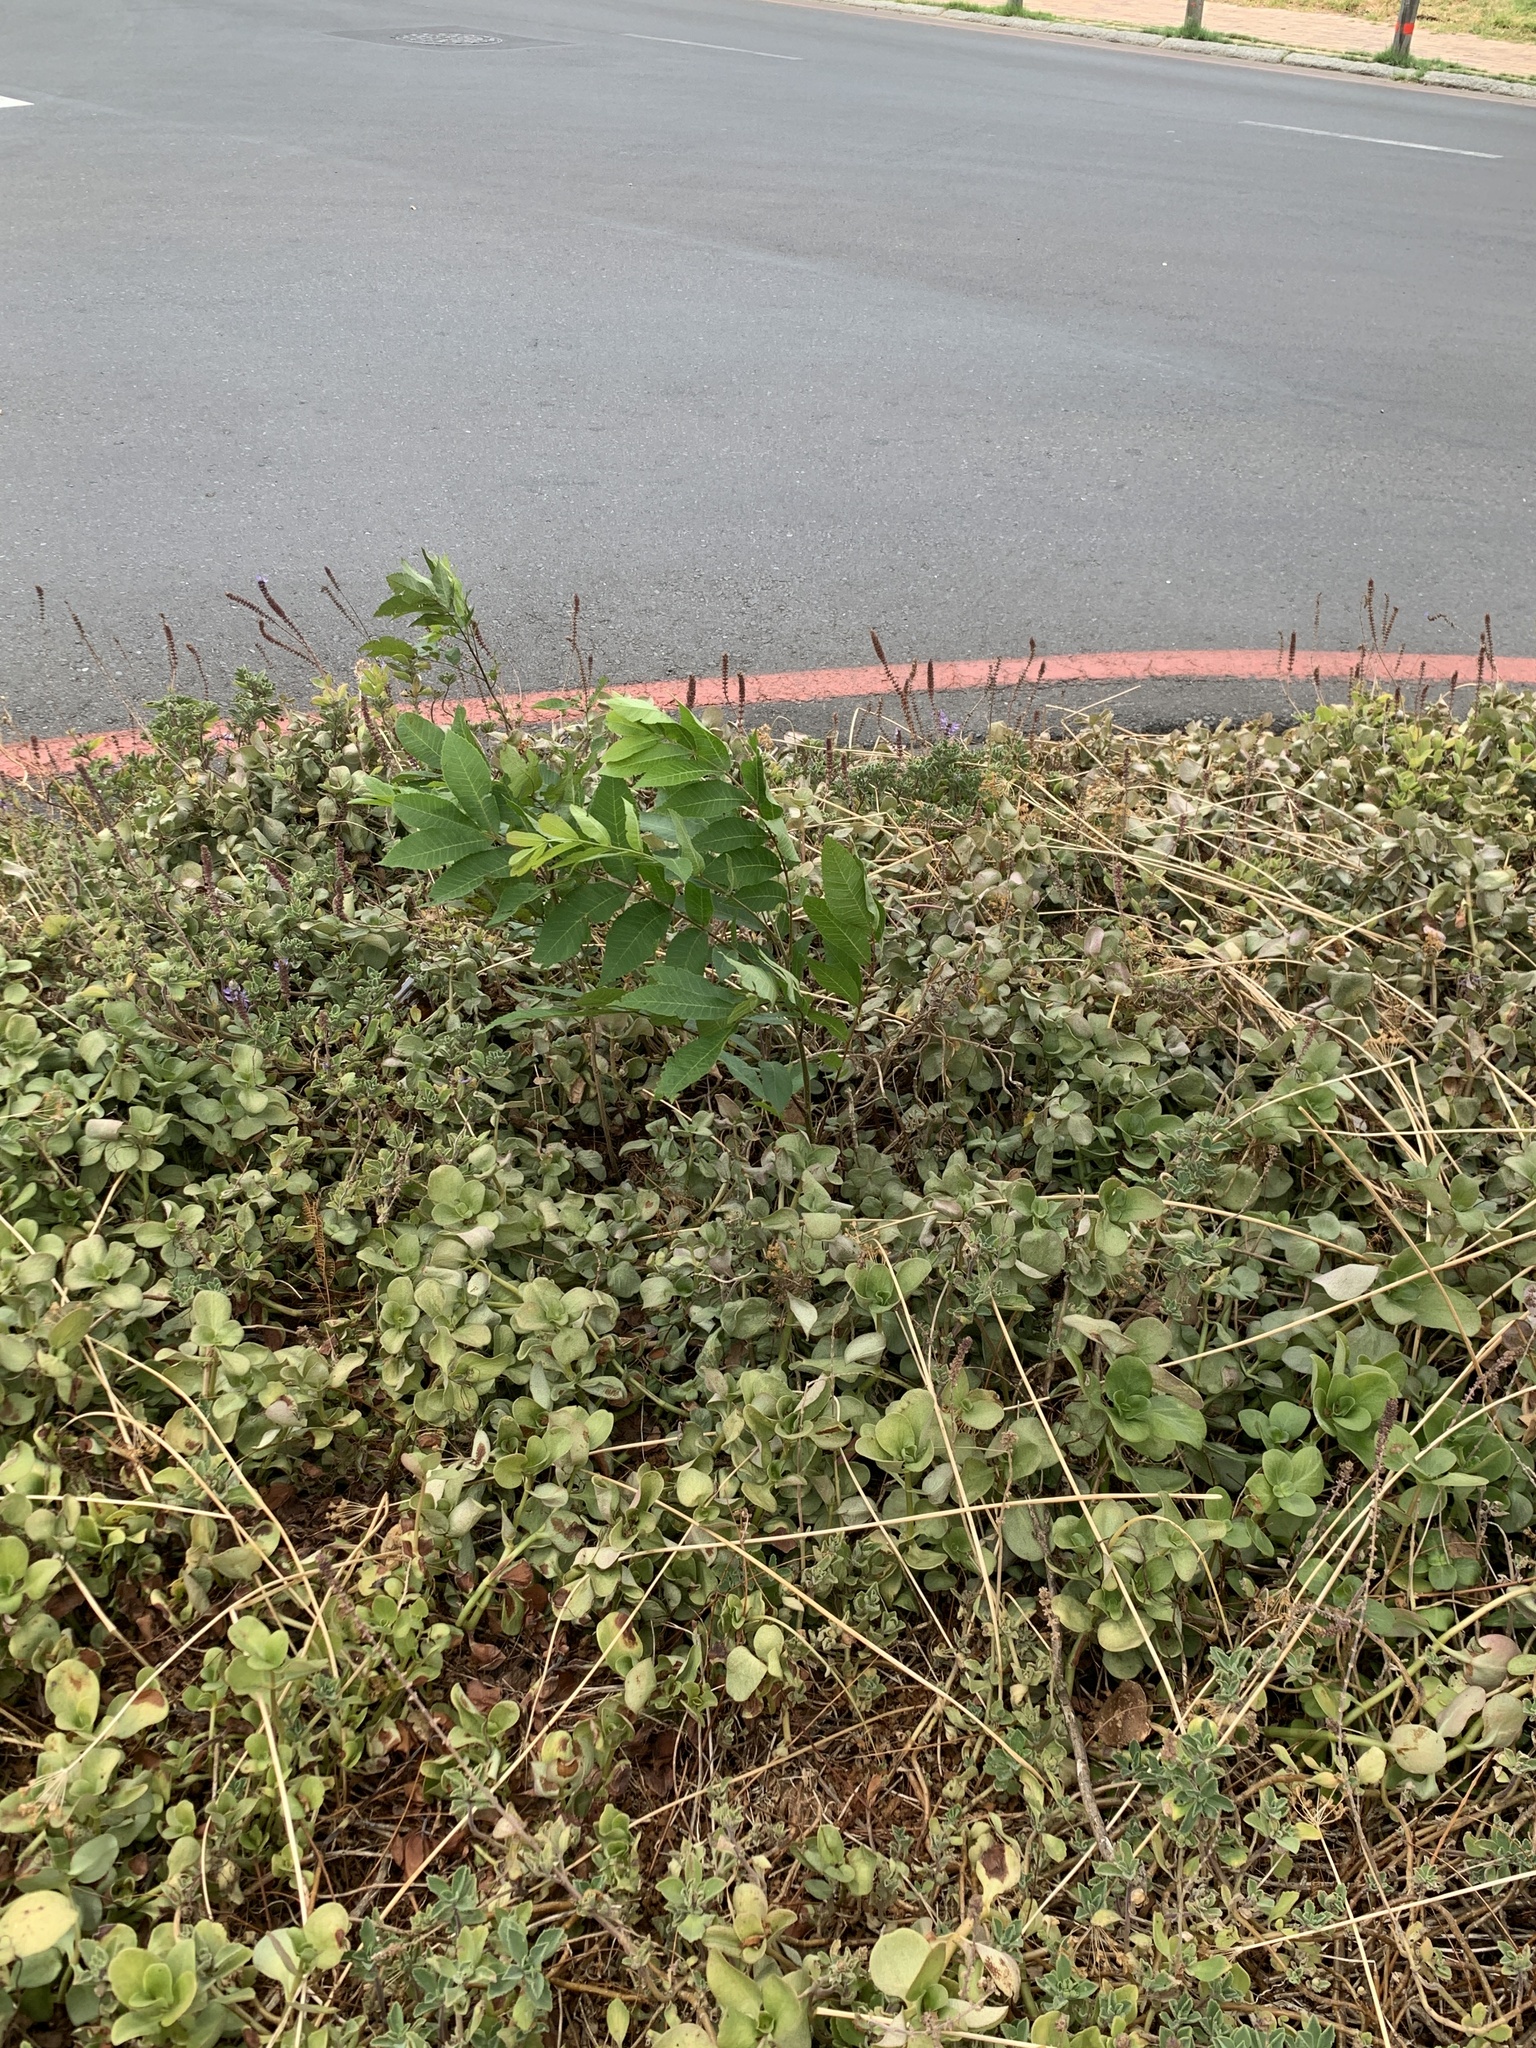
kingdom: Plantae
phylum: Tracheophyta
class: Magnoliopsida
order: Fagales
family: Juglandaceae
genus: Carya
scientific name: Carya illinoinensis
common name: Pecan
